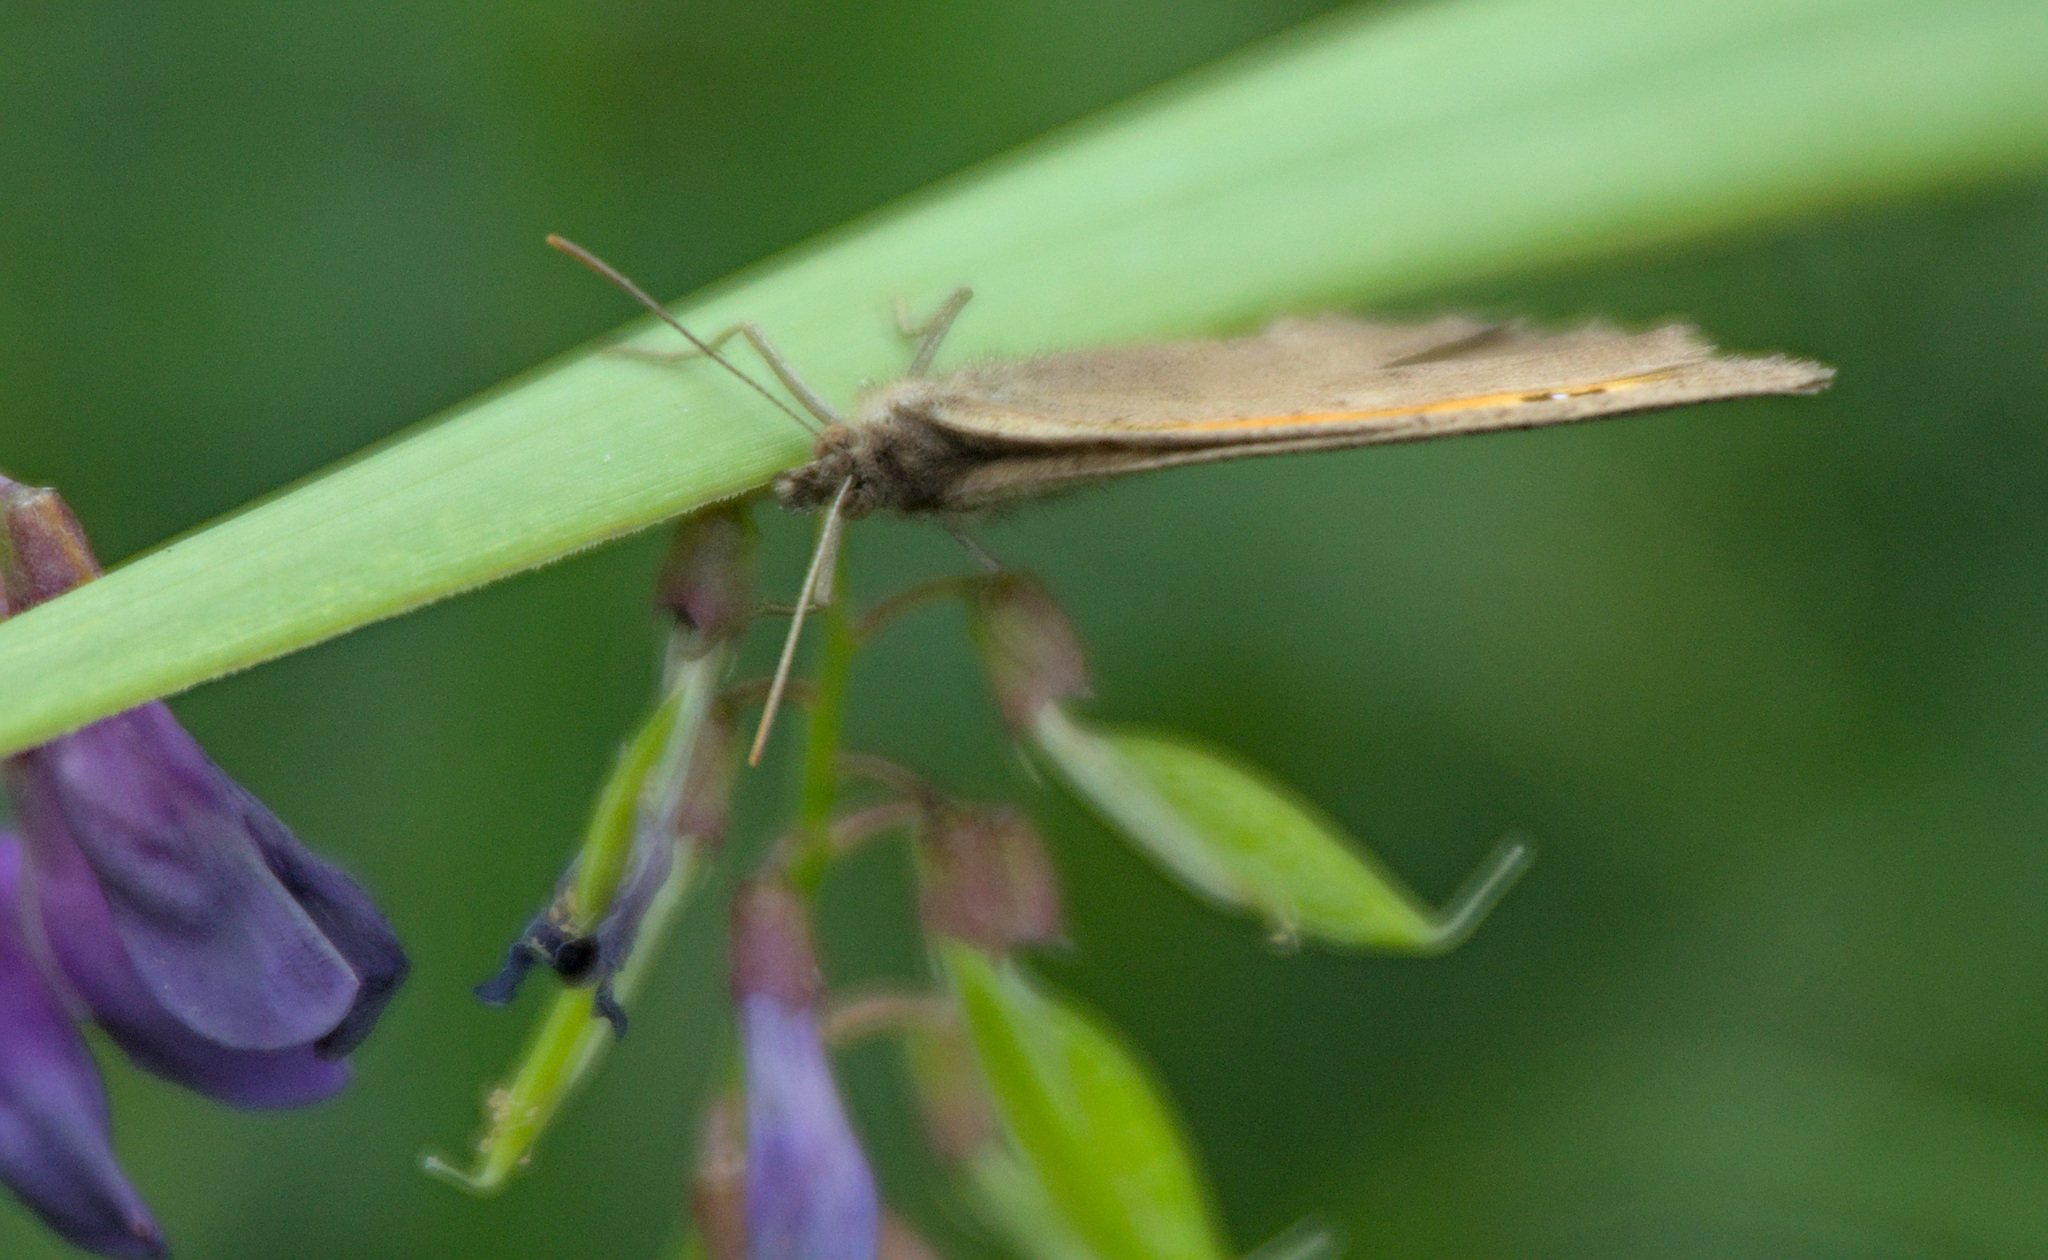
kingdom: Animalia
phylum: Arthropoda
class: Insecta
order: Lepidoptera
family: Nymphalidae
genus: Hyponephele
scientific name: Hyponephele lycaon
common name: Dusky meadow brown
